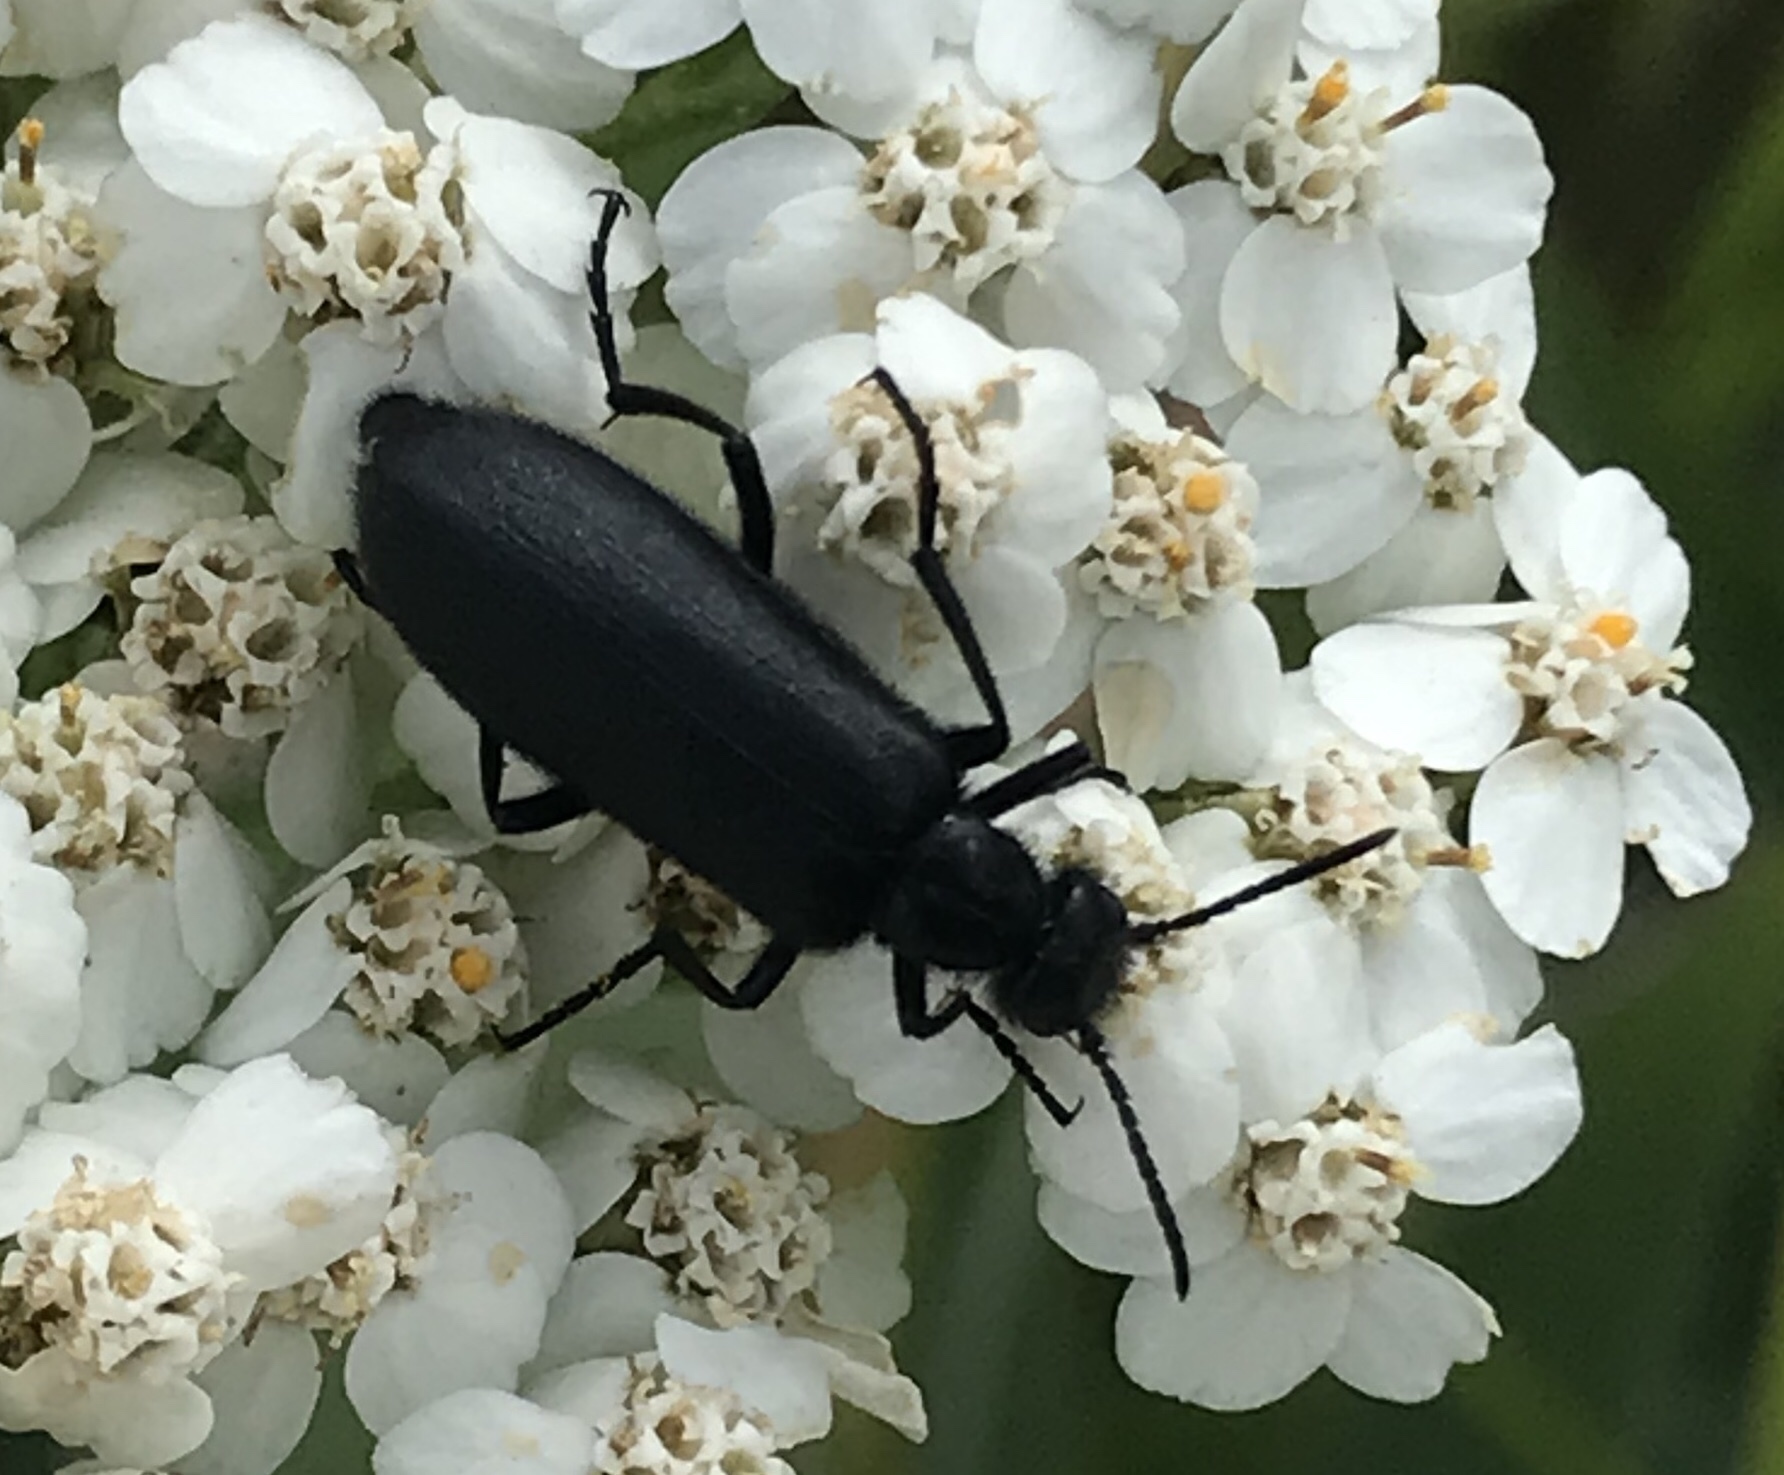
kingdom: Animalia
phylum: Arthropoda
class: Insecta
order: Coleoptera
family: Meloidae
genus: Epicauta
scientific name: Epicauta puncticollis
